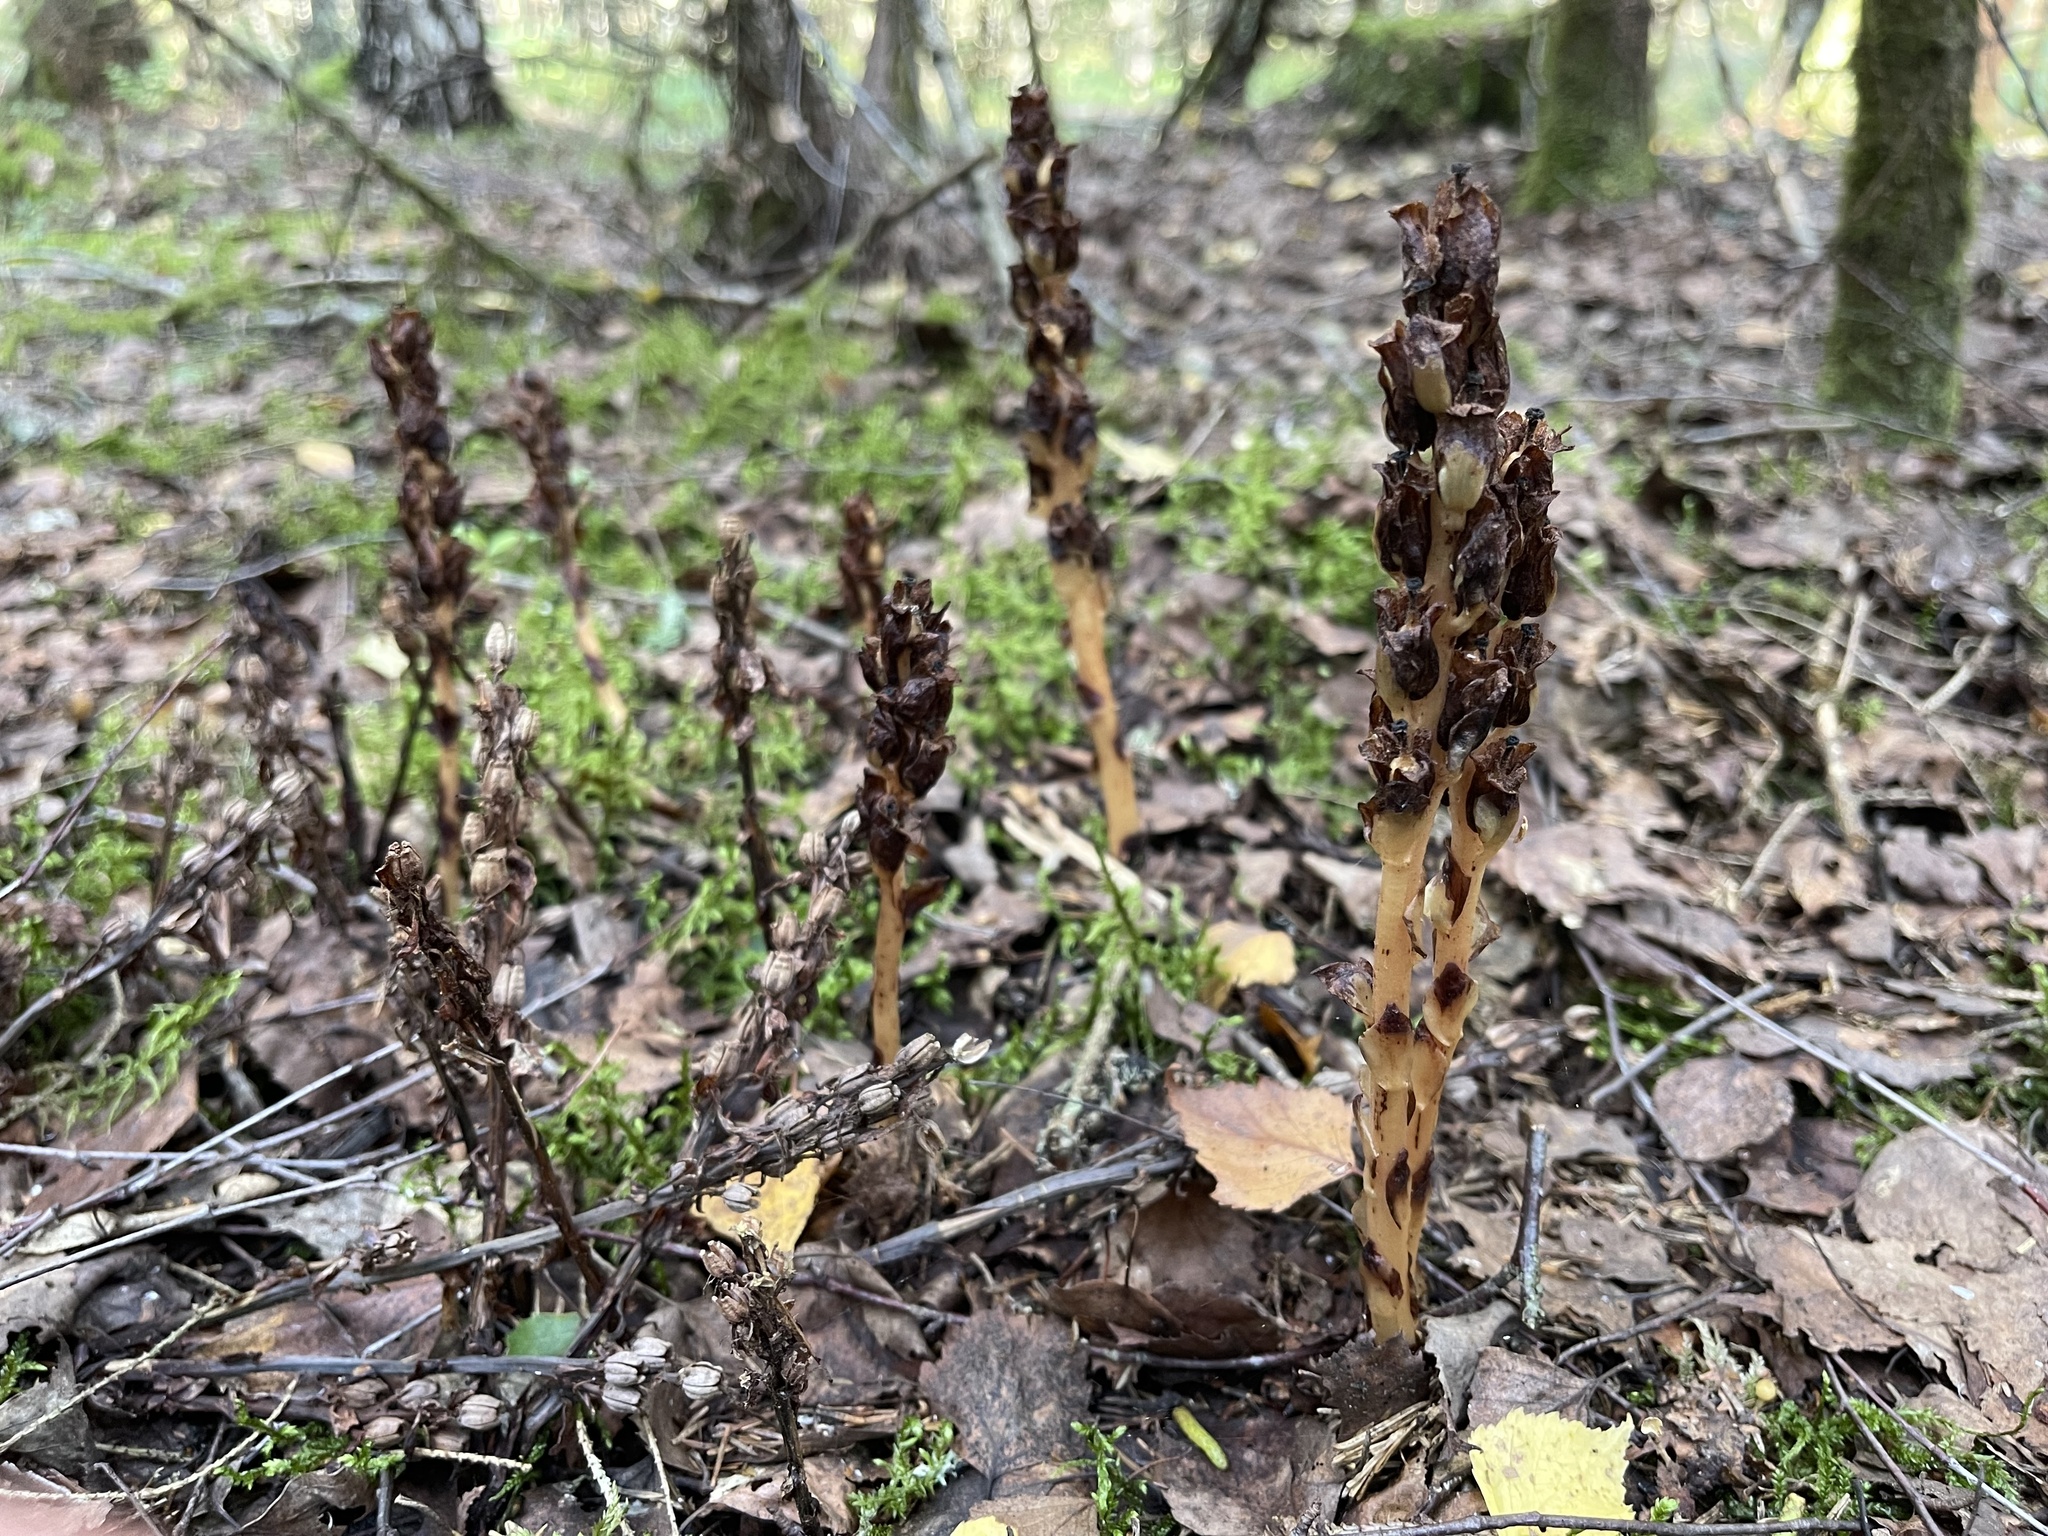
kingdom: Plantae
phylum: Tracheophyta
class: Magnoliopsida
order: Ericales
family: Ericaceae
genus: Hypopitys
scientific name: Hypopitys monotropa
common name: Yellow bird's-nest
